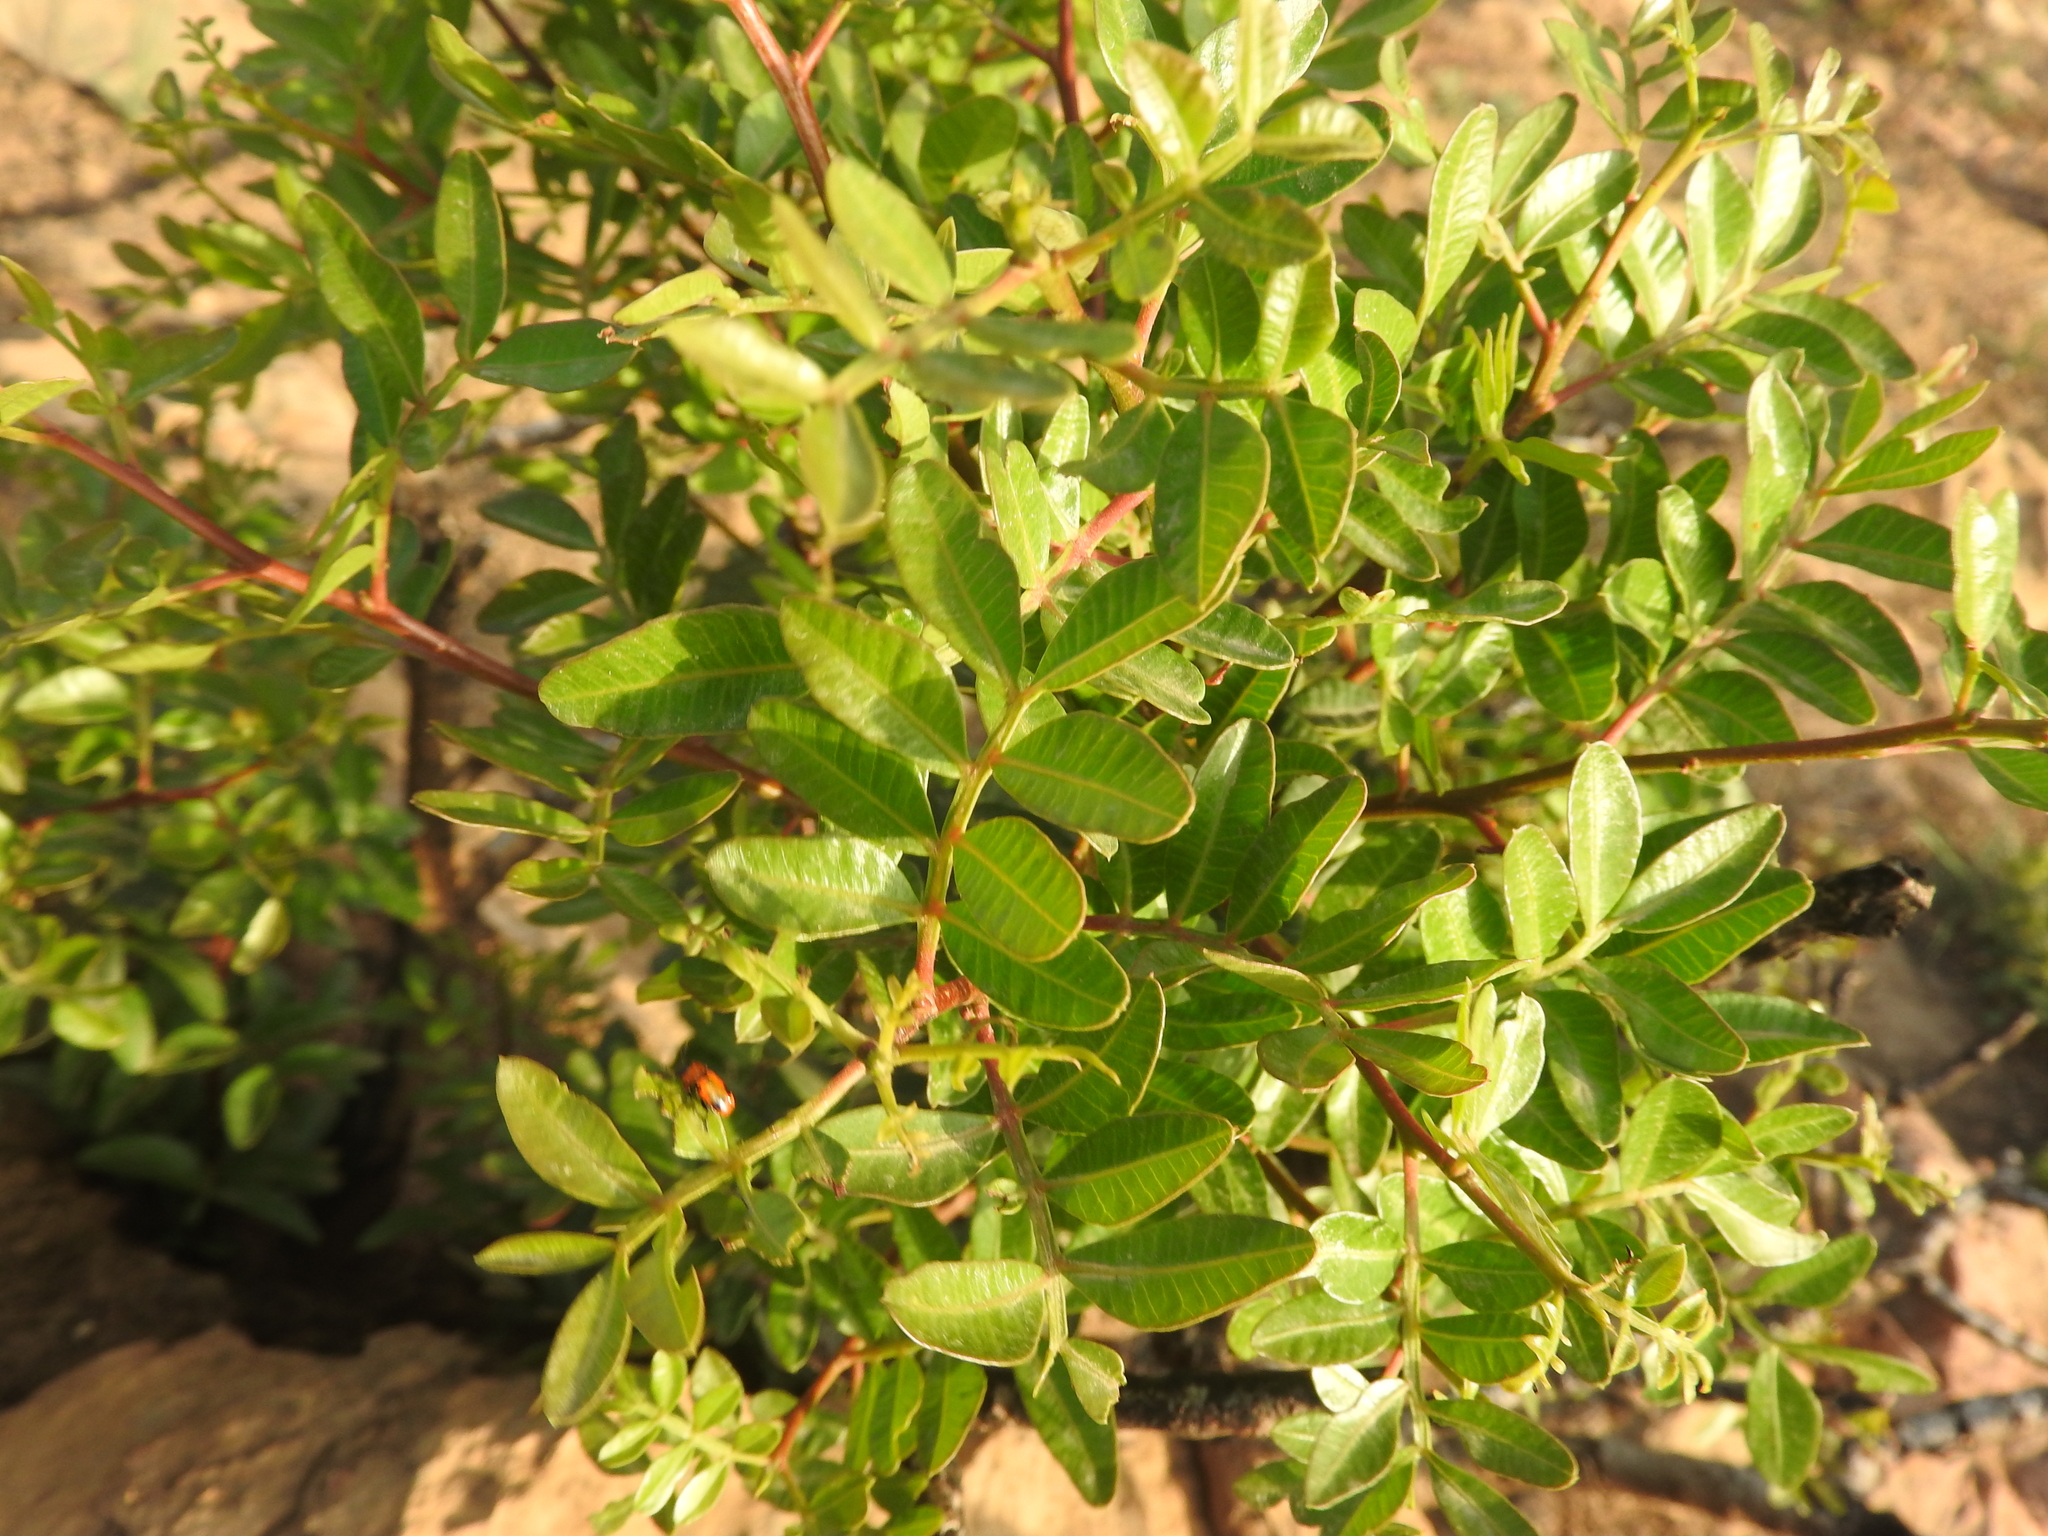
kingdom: Plantae
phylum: Tracheophyta
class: Magnoliopsida
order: Sapindales
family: Anacardiaceae
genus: Pistacia
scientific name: Pistacia lentiscus
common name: Lentisk
